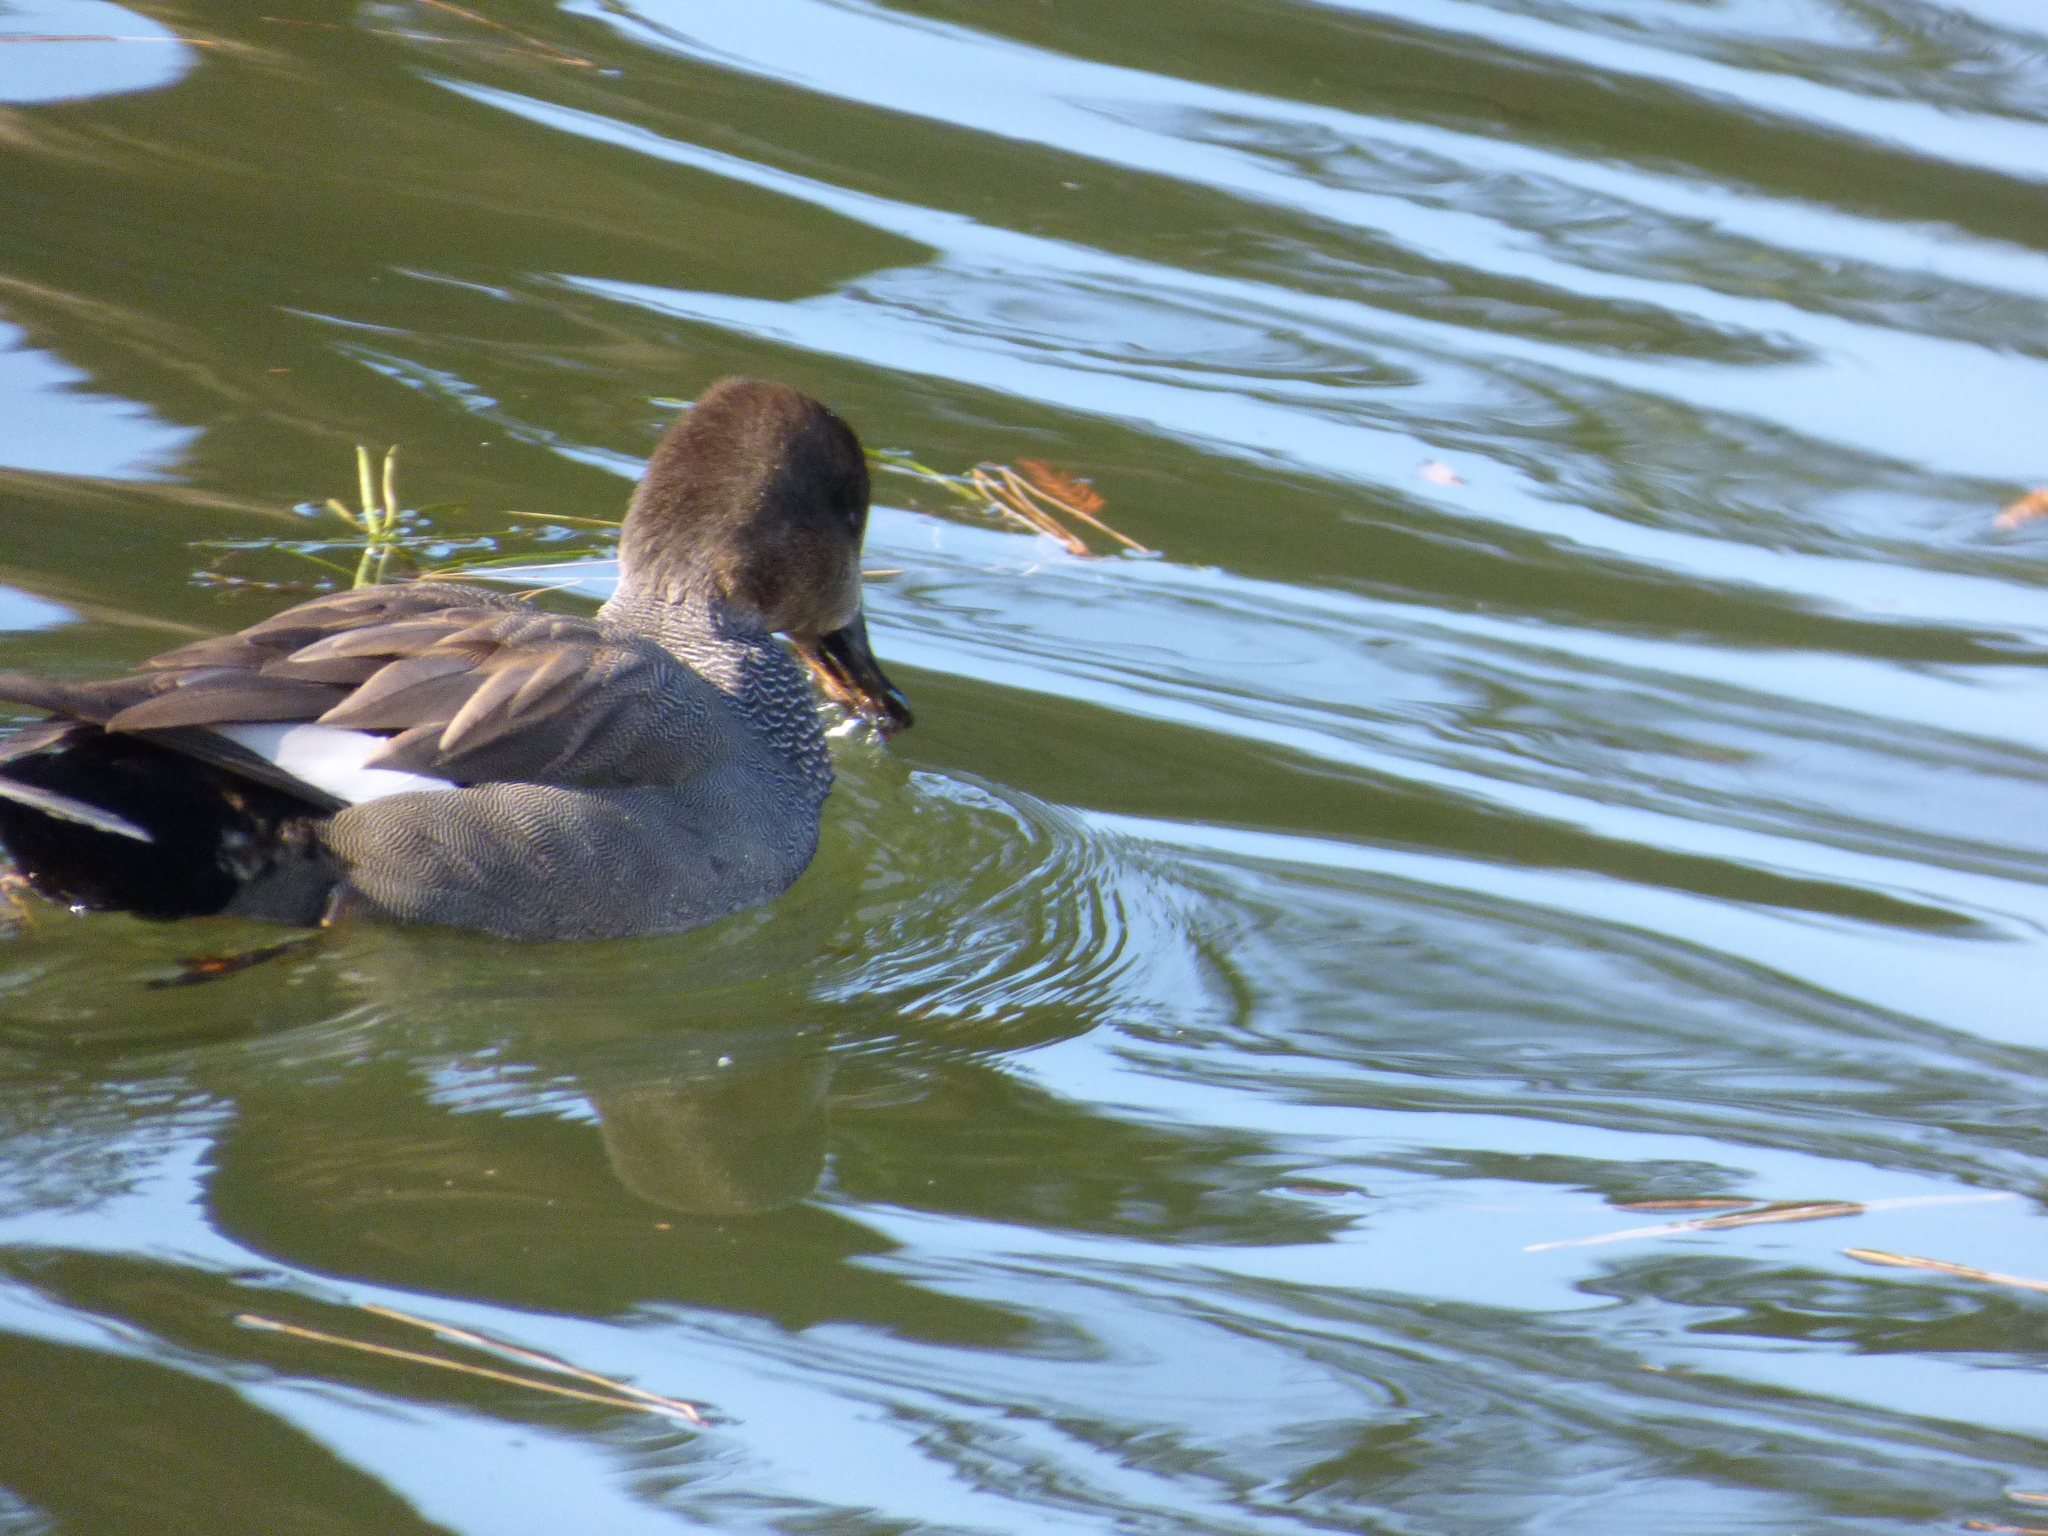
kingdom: Animalia
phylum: Chordata
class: Aves
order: Anseriformes
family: Anatidae
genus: Mareca
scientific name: Mareca strepera
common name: Gadwall
